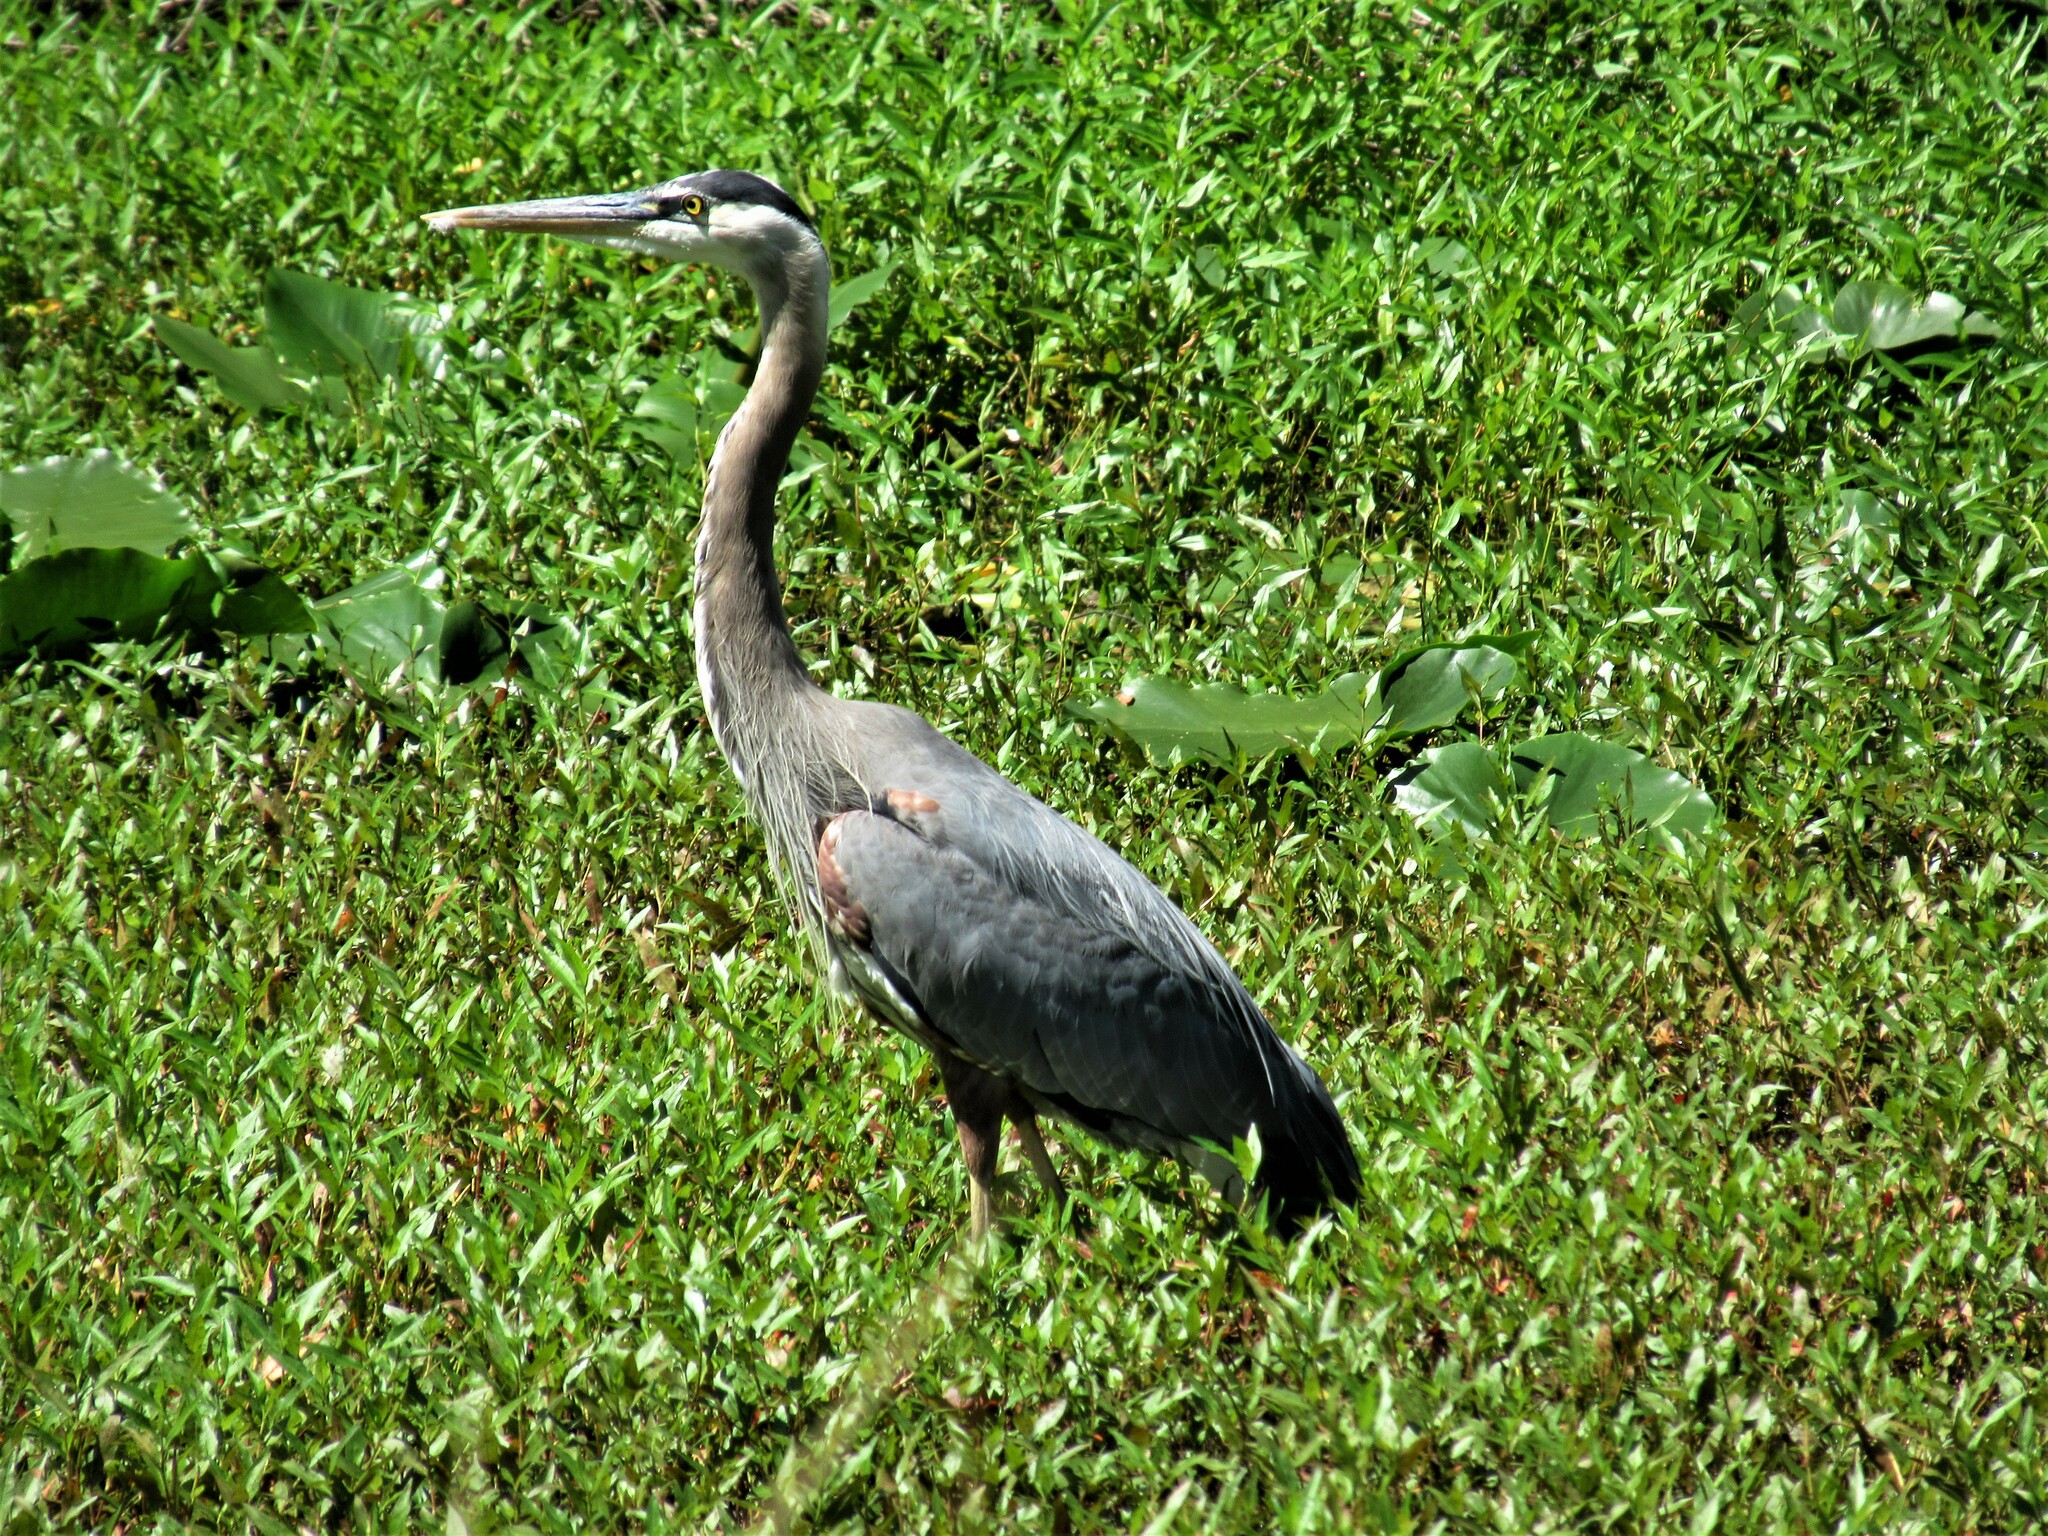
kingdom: Animalia
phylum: Chordata
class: Aves
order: Pelecaniformes
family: Ardeidae
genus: Ardea
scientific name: Ardea herodias
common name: Great blue heron
